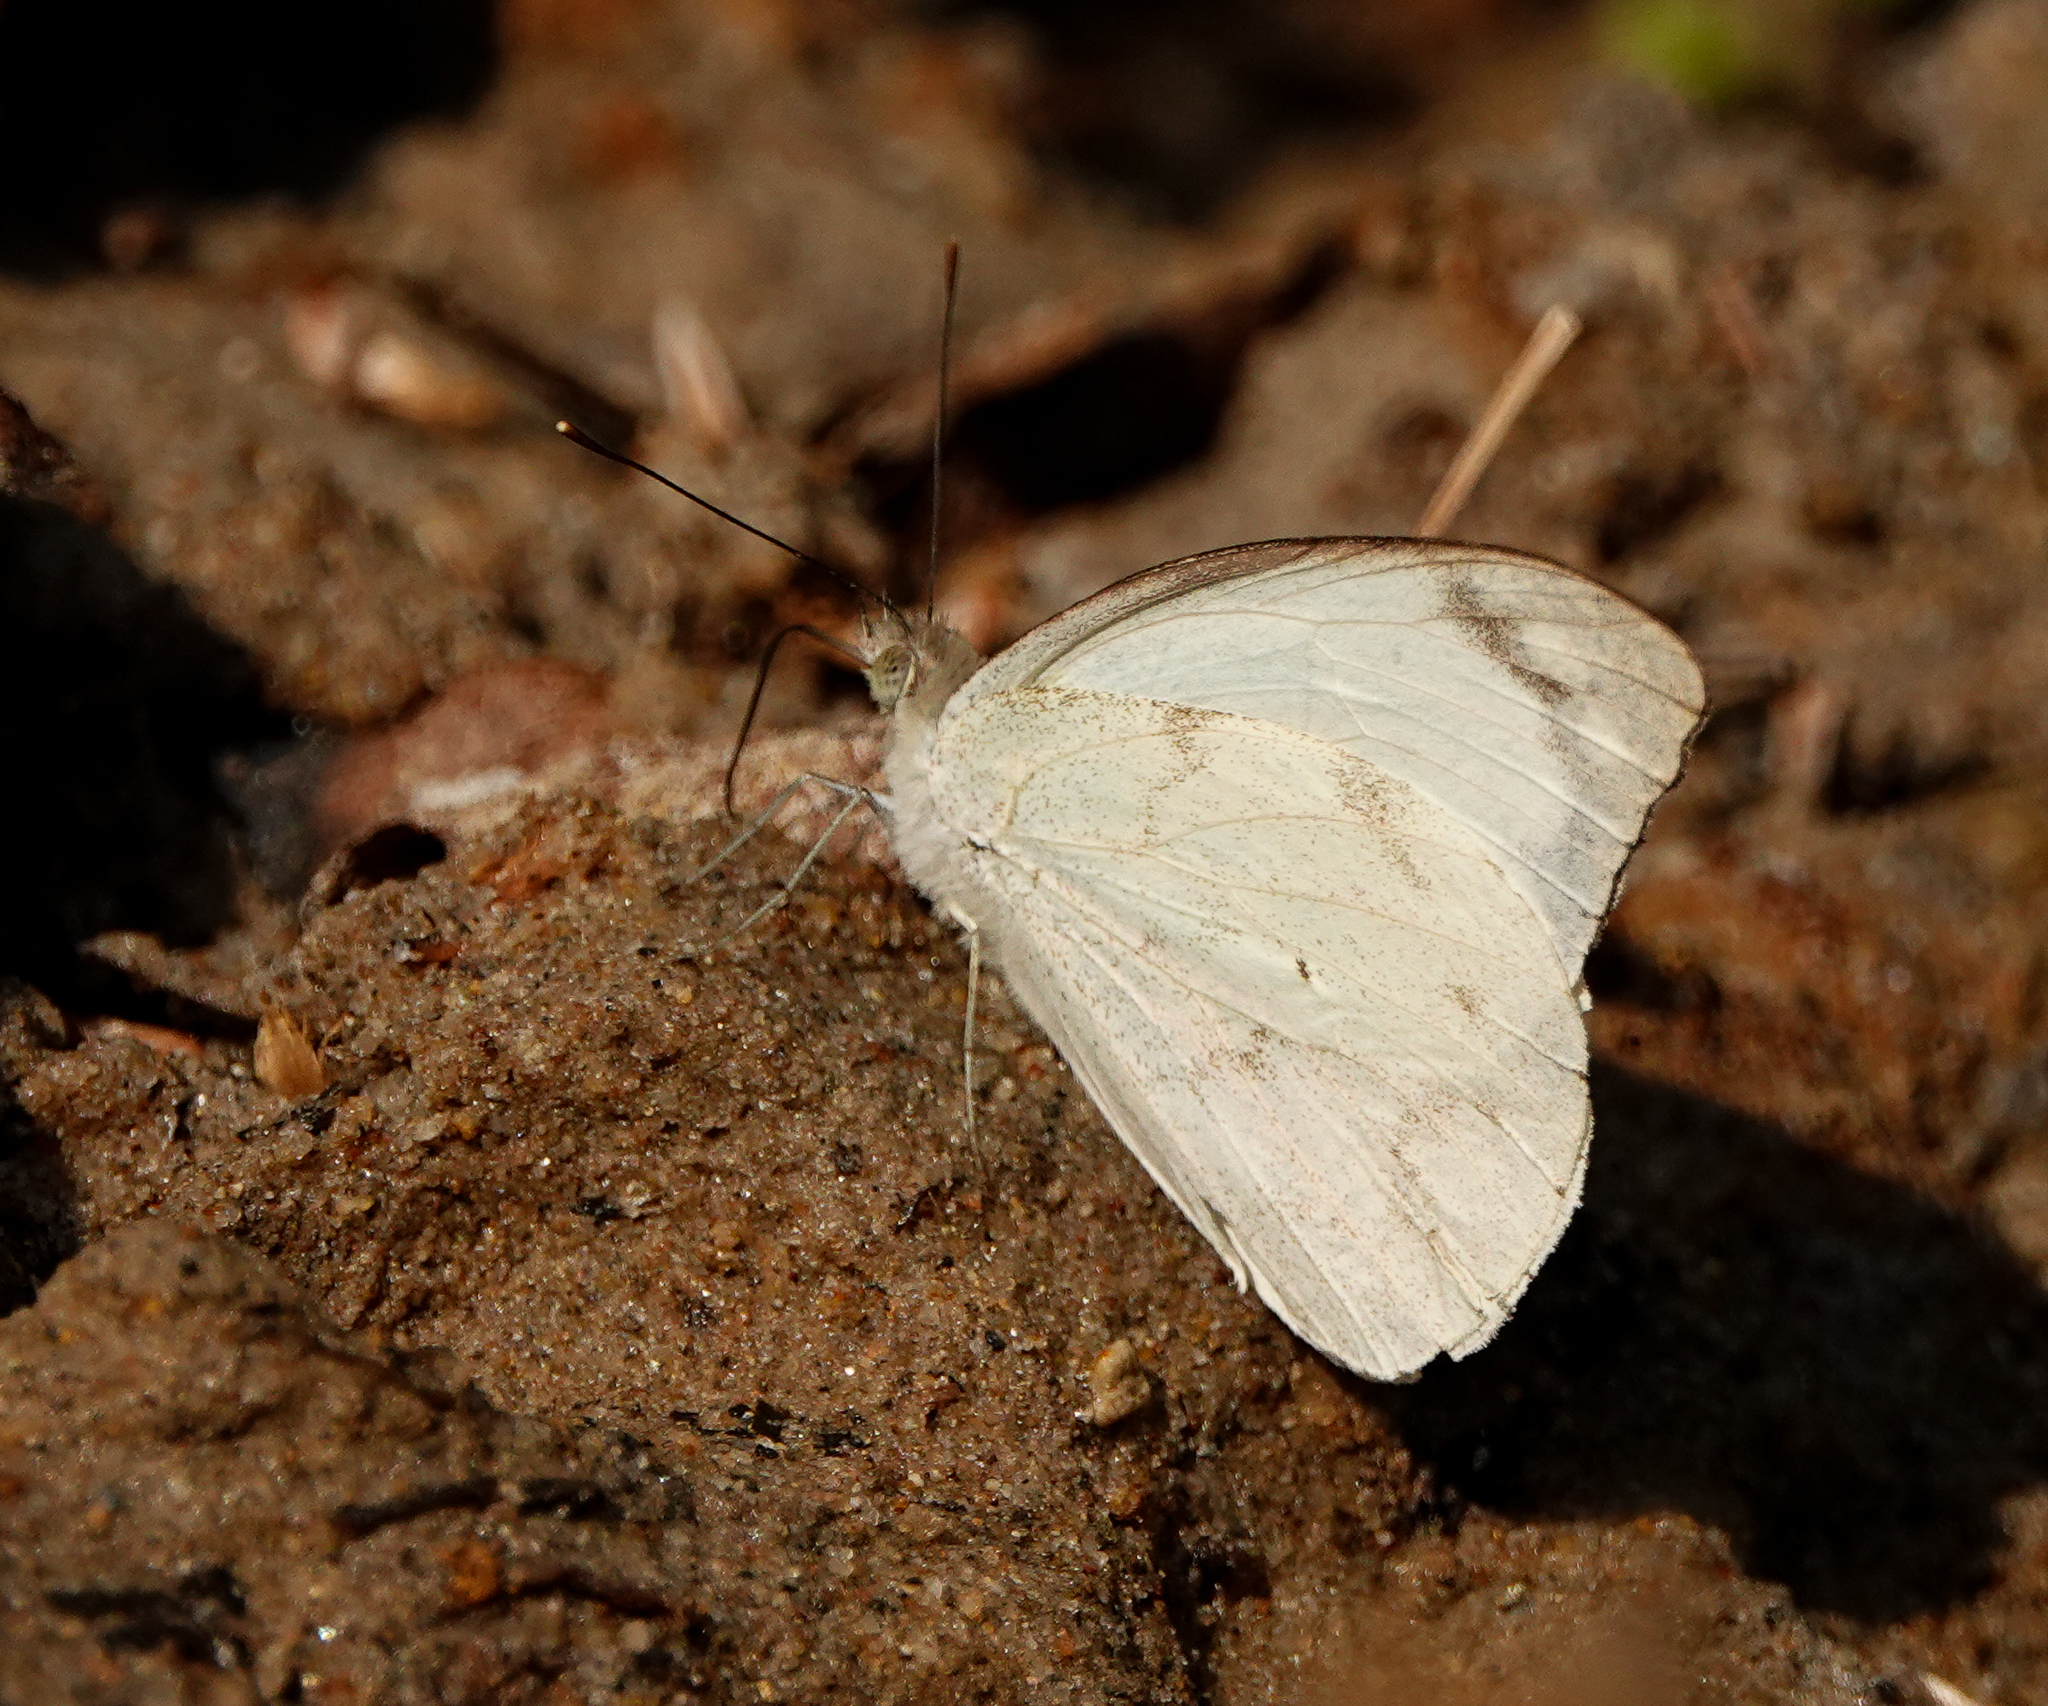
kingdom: Animalia
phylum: Arthropoda
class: Insecta
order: Lepidoptera
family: Pieridae
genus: Appias
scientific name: Appias indra
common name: Plain puffin
